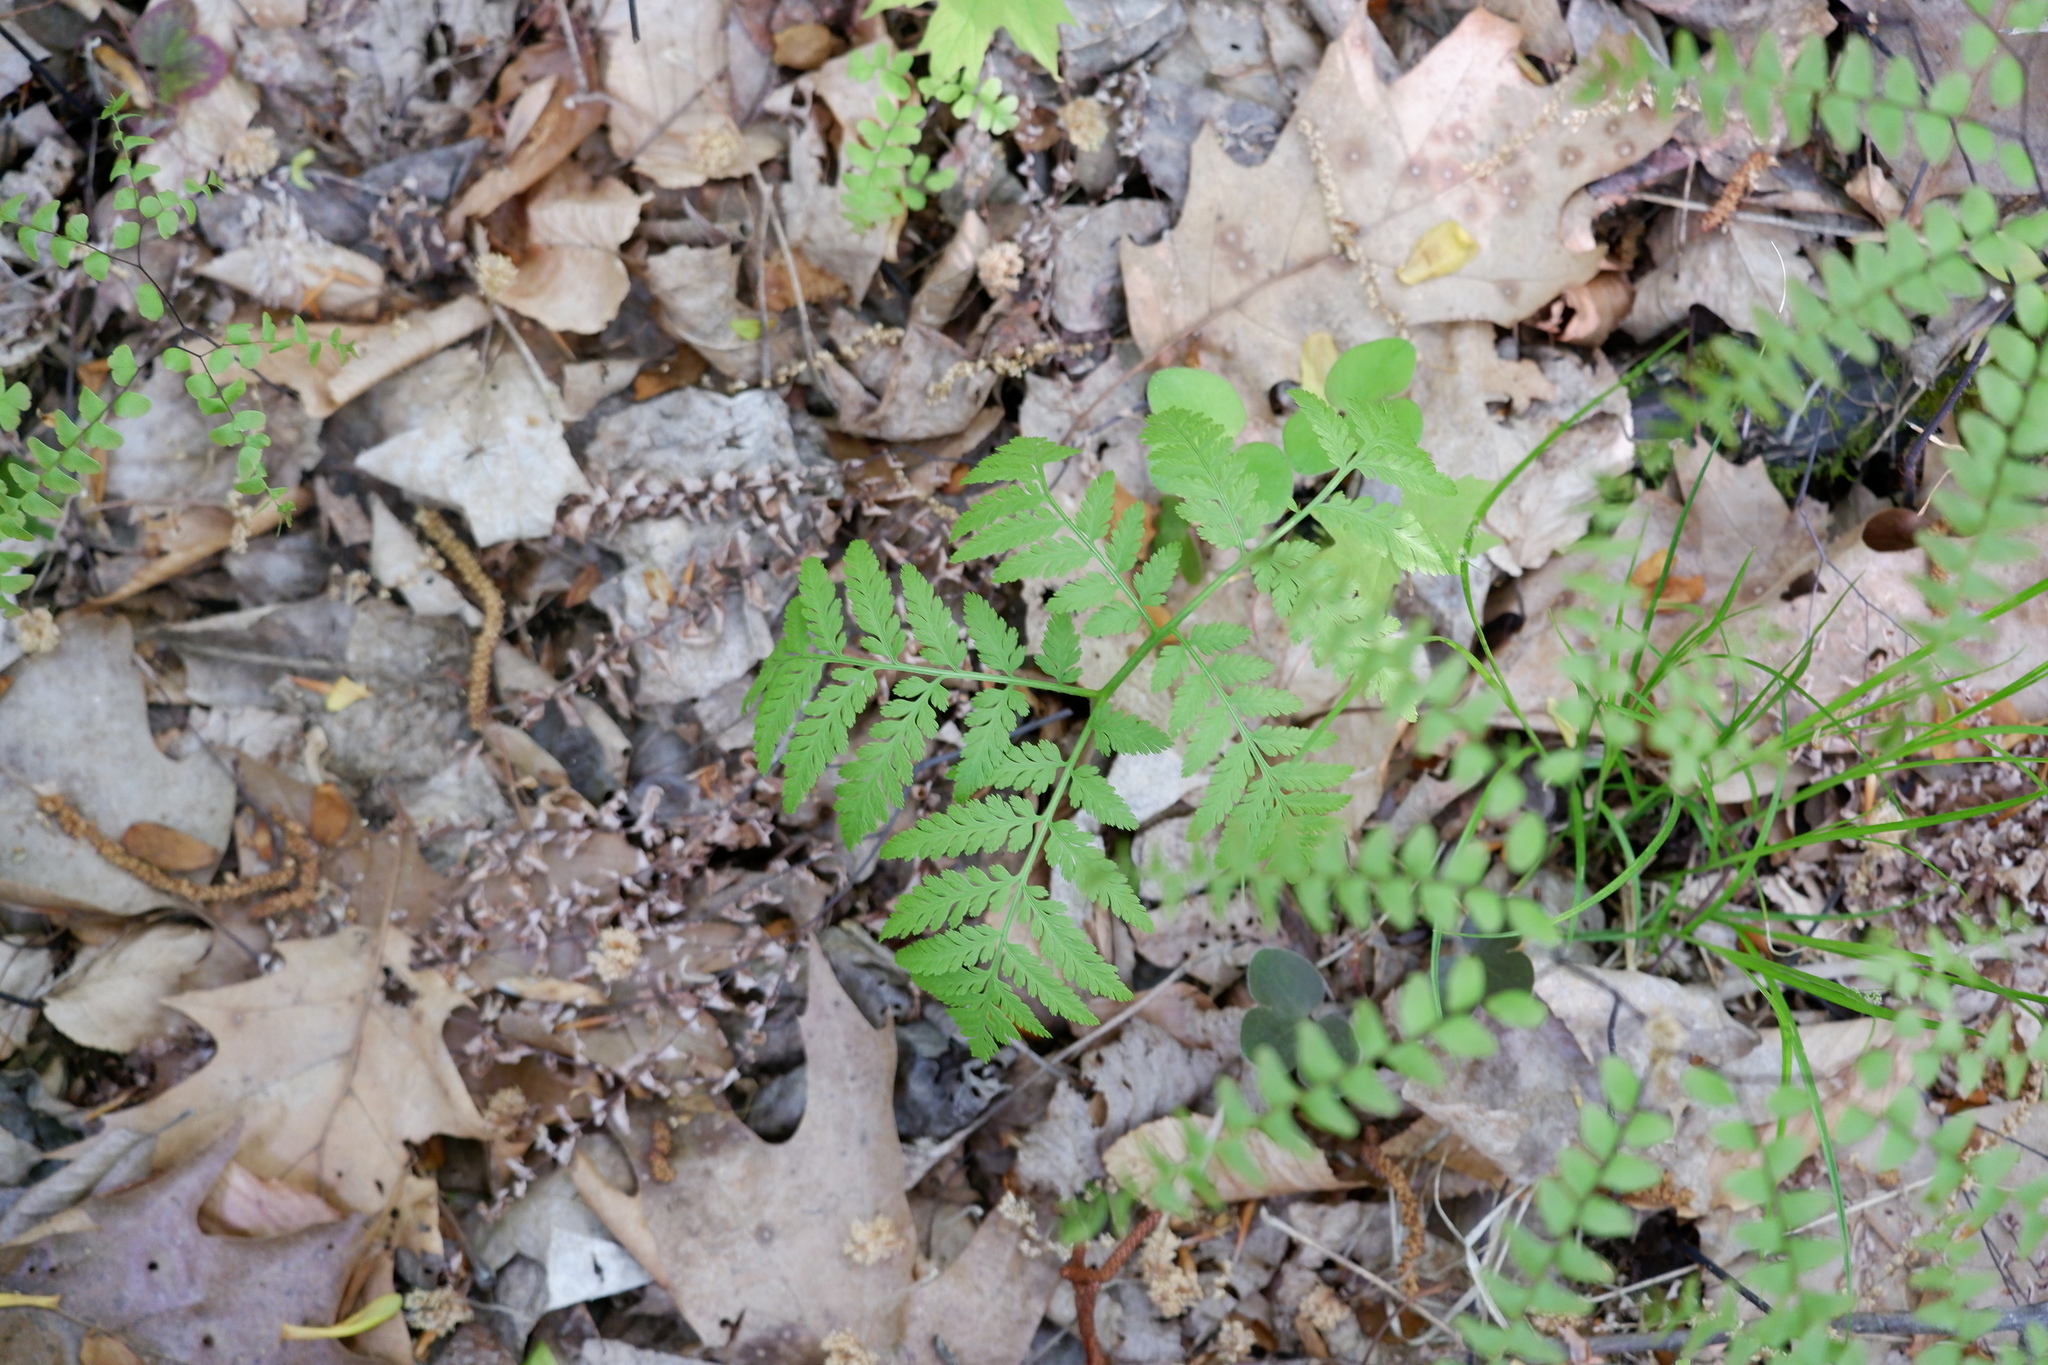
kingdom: Plantae
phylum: Tracheophyta
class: Polypodiopsida
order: Ophioglossales
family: Ophioglossaceae
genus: Botrypus
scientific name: Botrypus virginianus
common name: Common grapefern
